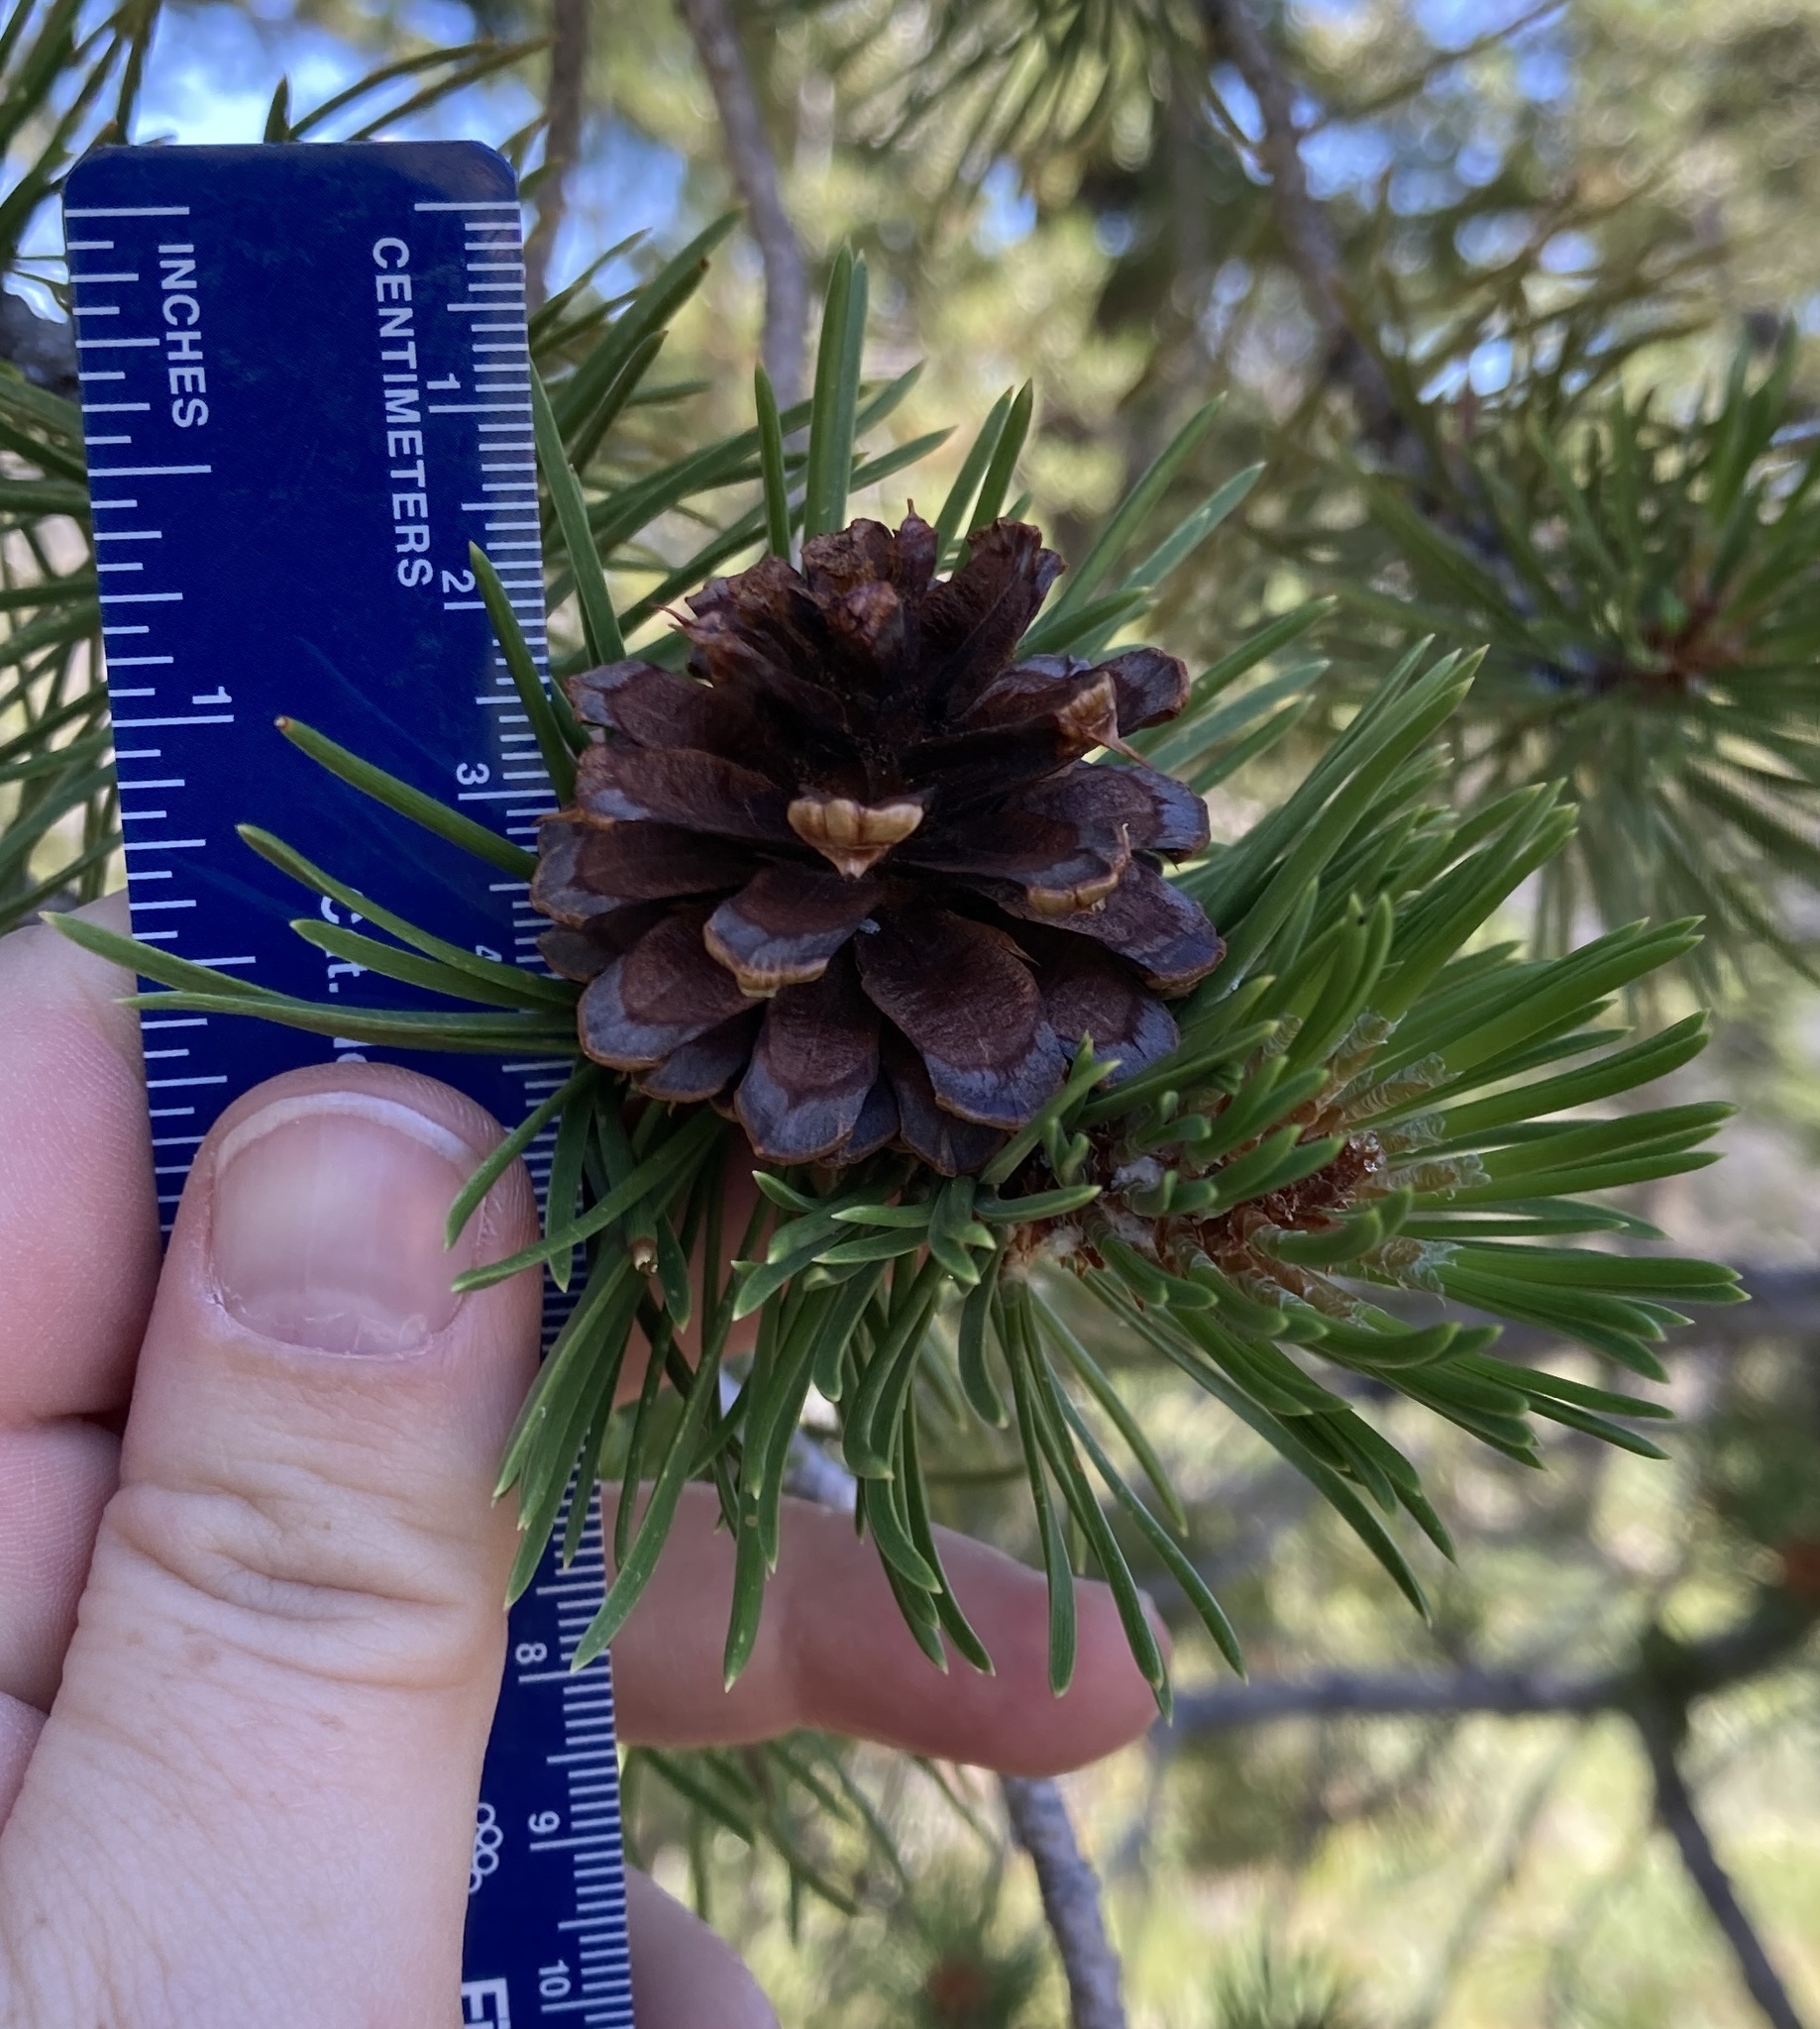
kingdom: Plantae
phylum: Tracheophyta
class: Pinopsida
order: Pinales
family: Pinaceae
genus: Pinus
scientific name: Pinus contorta
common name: Lodgepole pine
